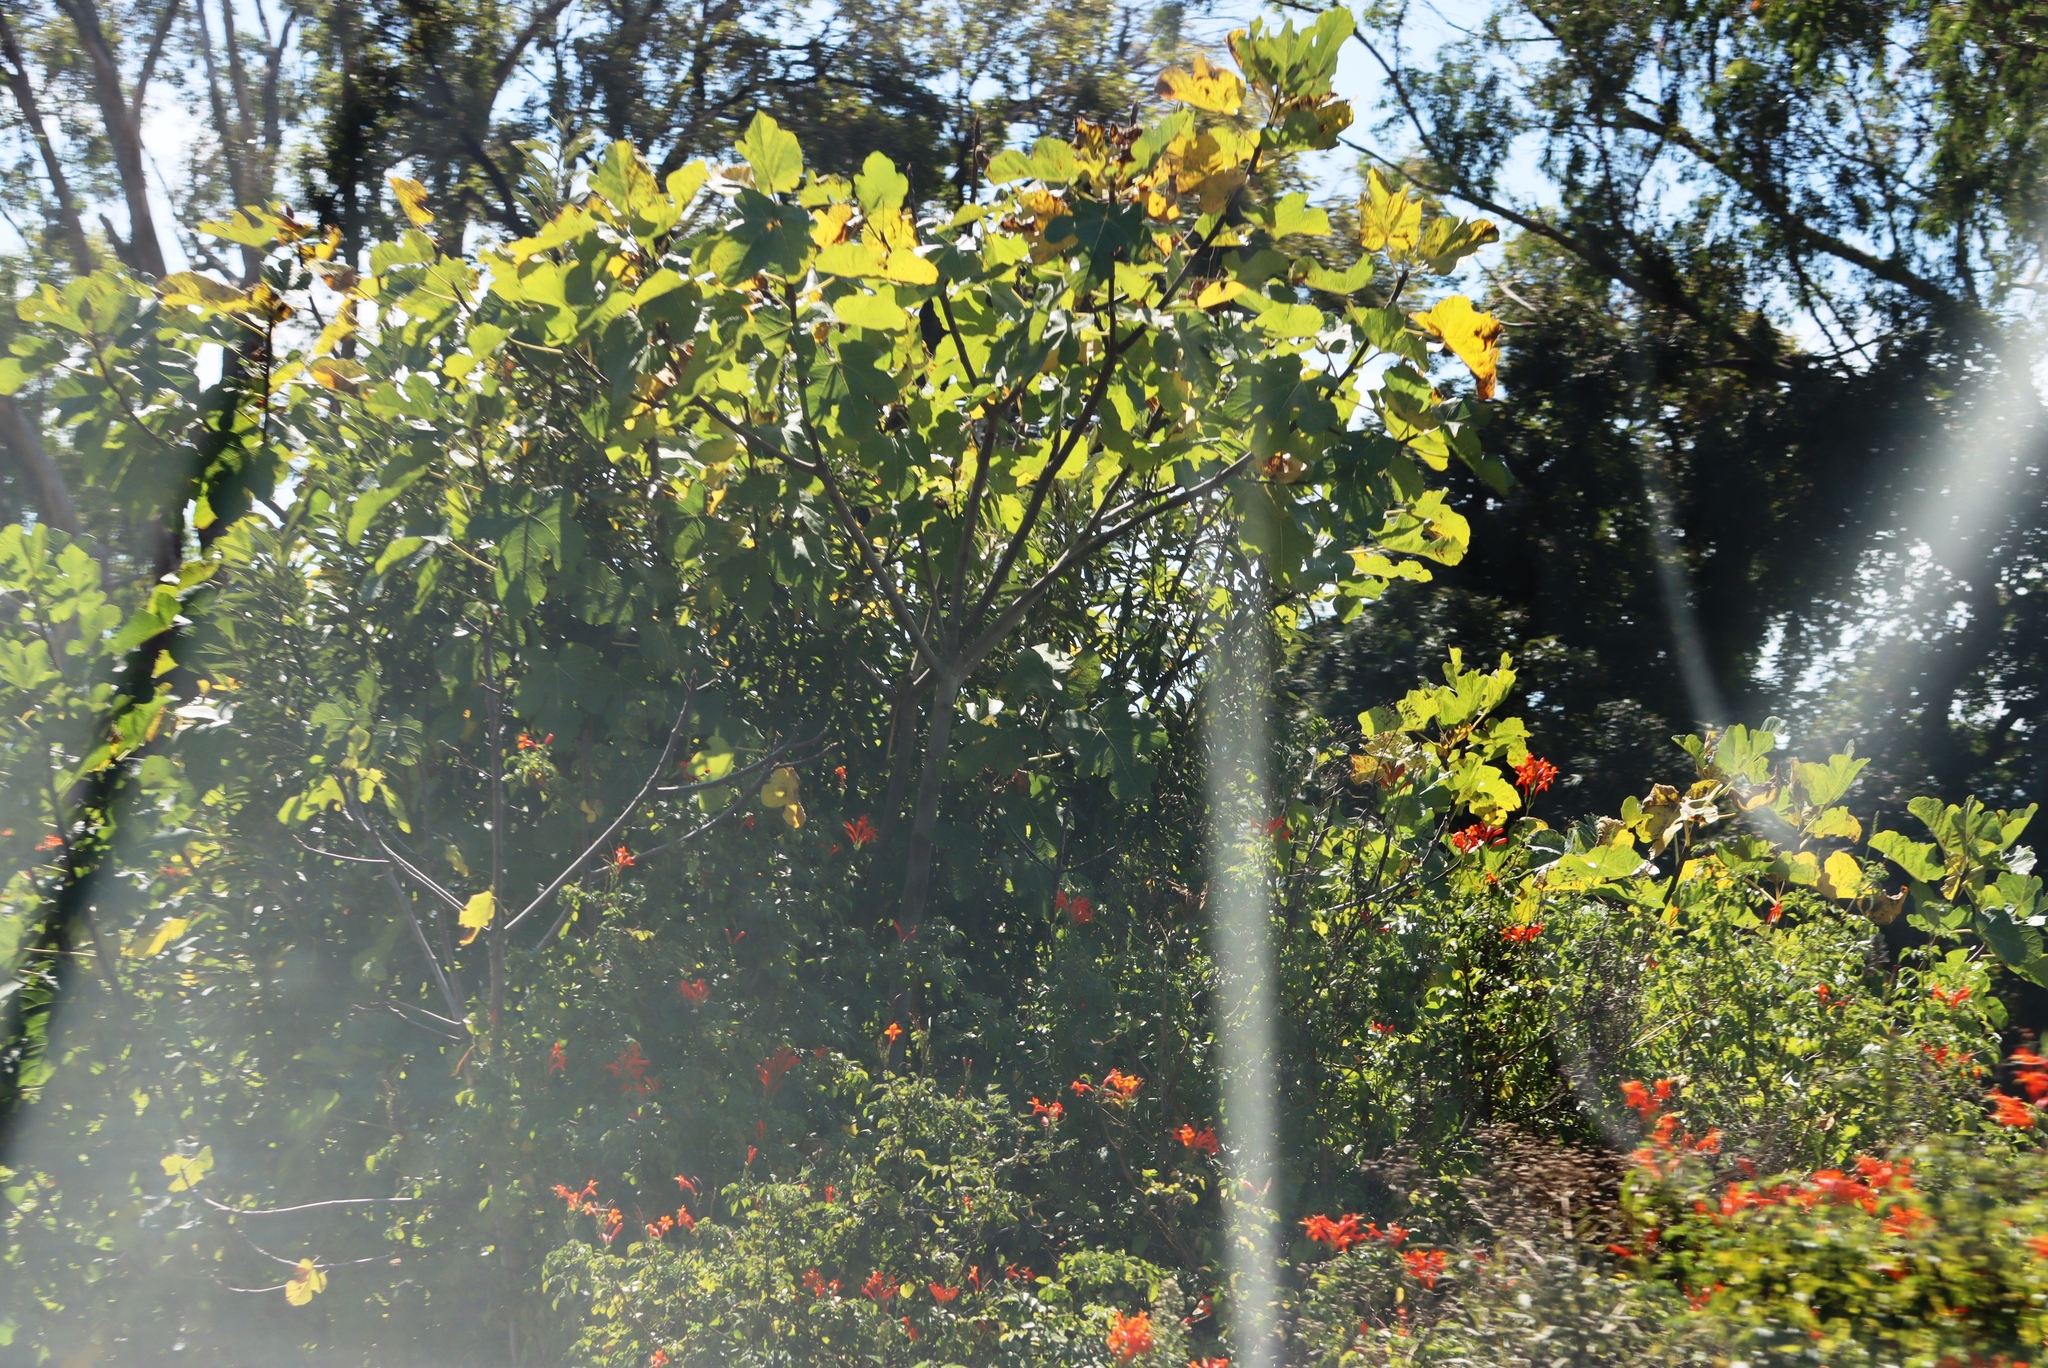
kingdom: Plantae
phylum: Tracheophyta
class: Magnoliopsida
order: Rosales
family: Moraceae
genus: Ficus
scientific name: Ficus carica
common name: Fig
